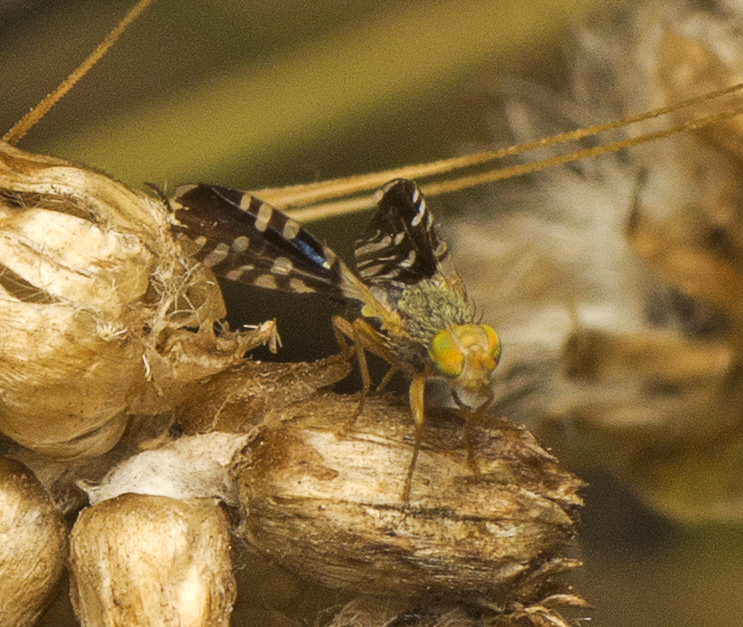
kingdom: Animalia
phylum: Arthropoda
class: Insecta
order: Diptera
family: Tephritidae
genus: Spathulina
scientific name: Spathulina acroleuca
